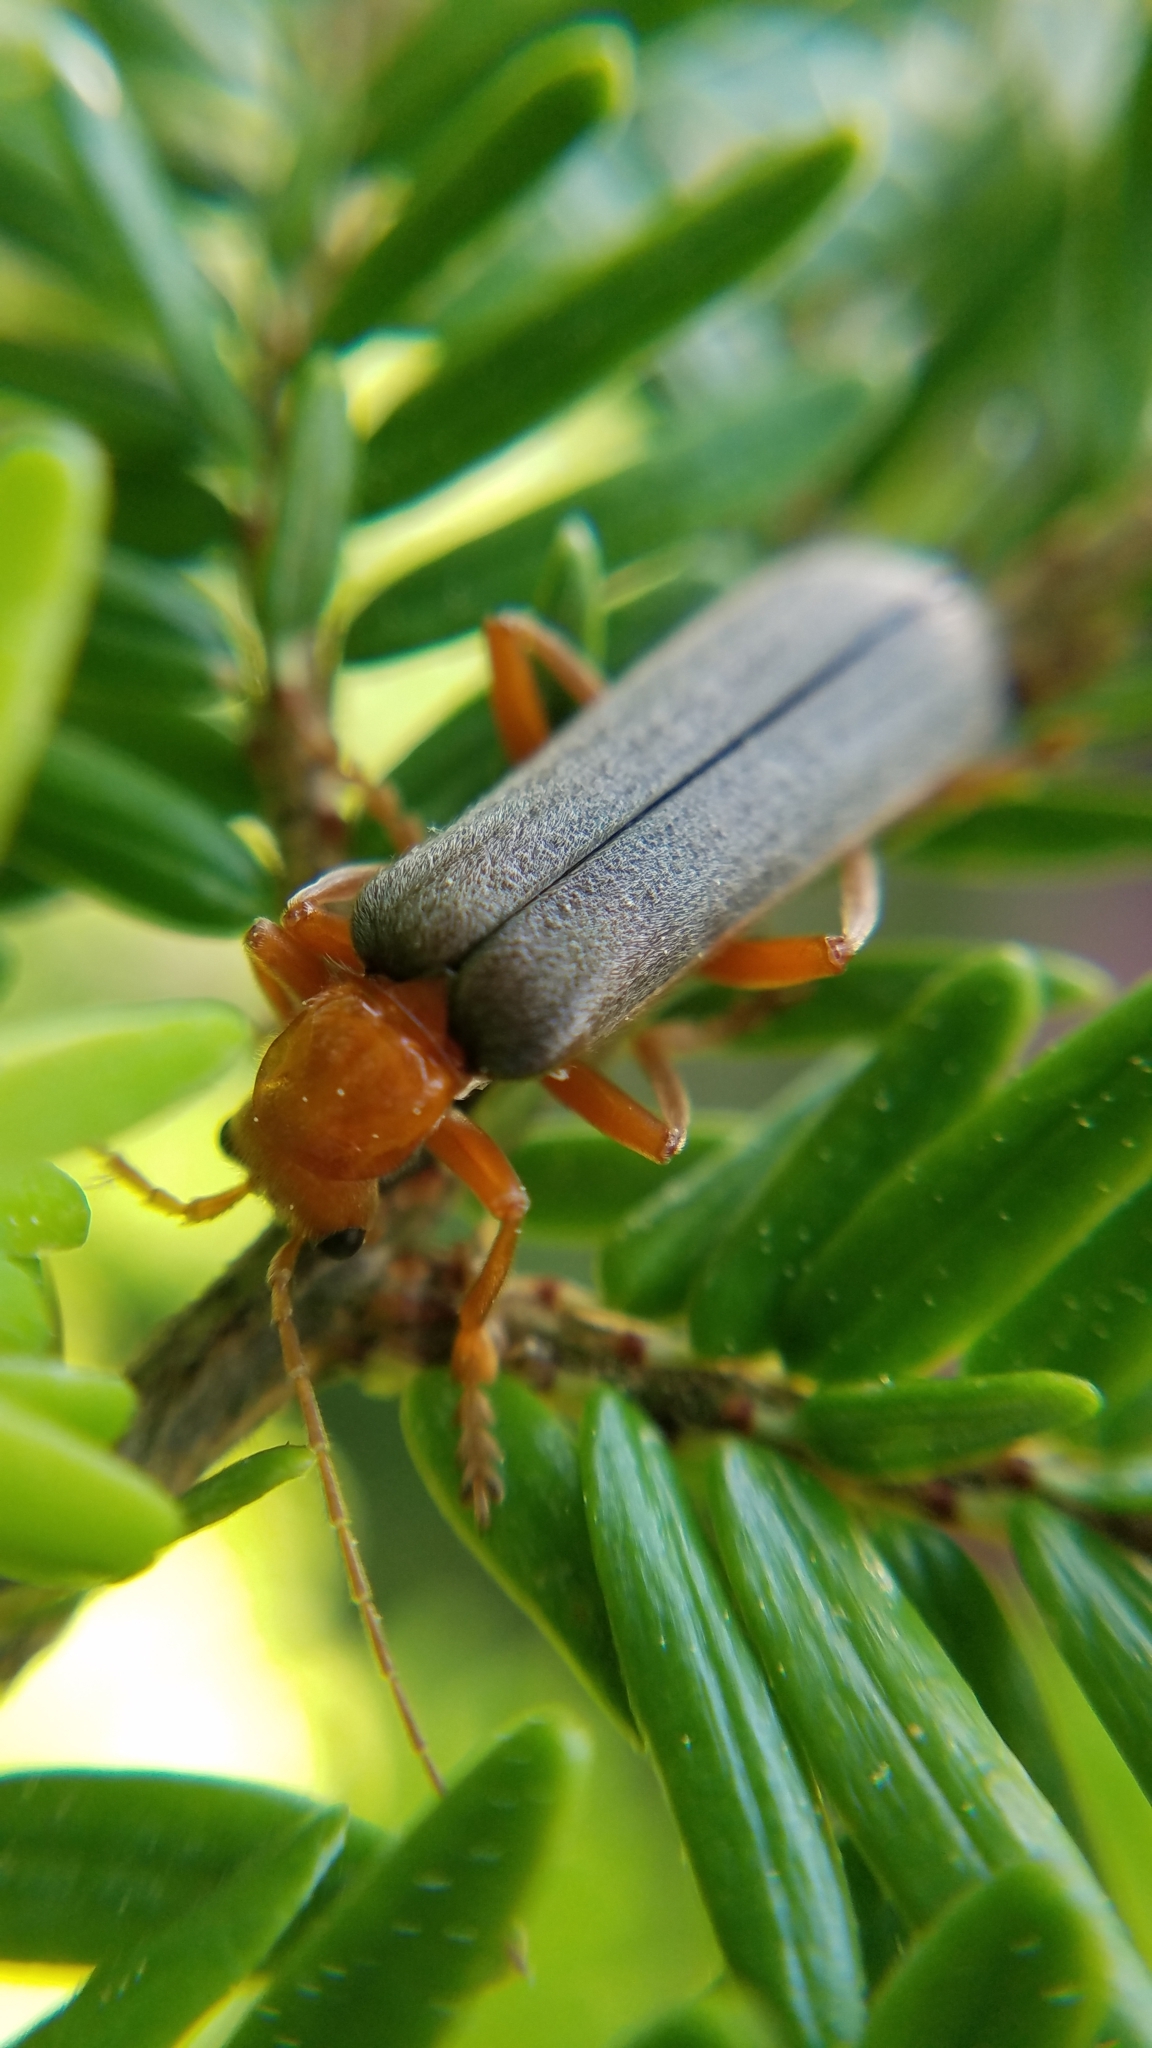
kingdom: Animalia
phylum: Arthropoda
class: Insecta
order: Coleoptera
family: Cantharidae
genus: Pacificanthia
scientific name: Pacificanthia rotundicollis
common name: Brown leatherwing beetle
